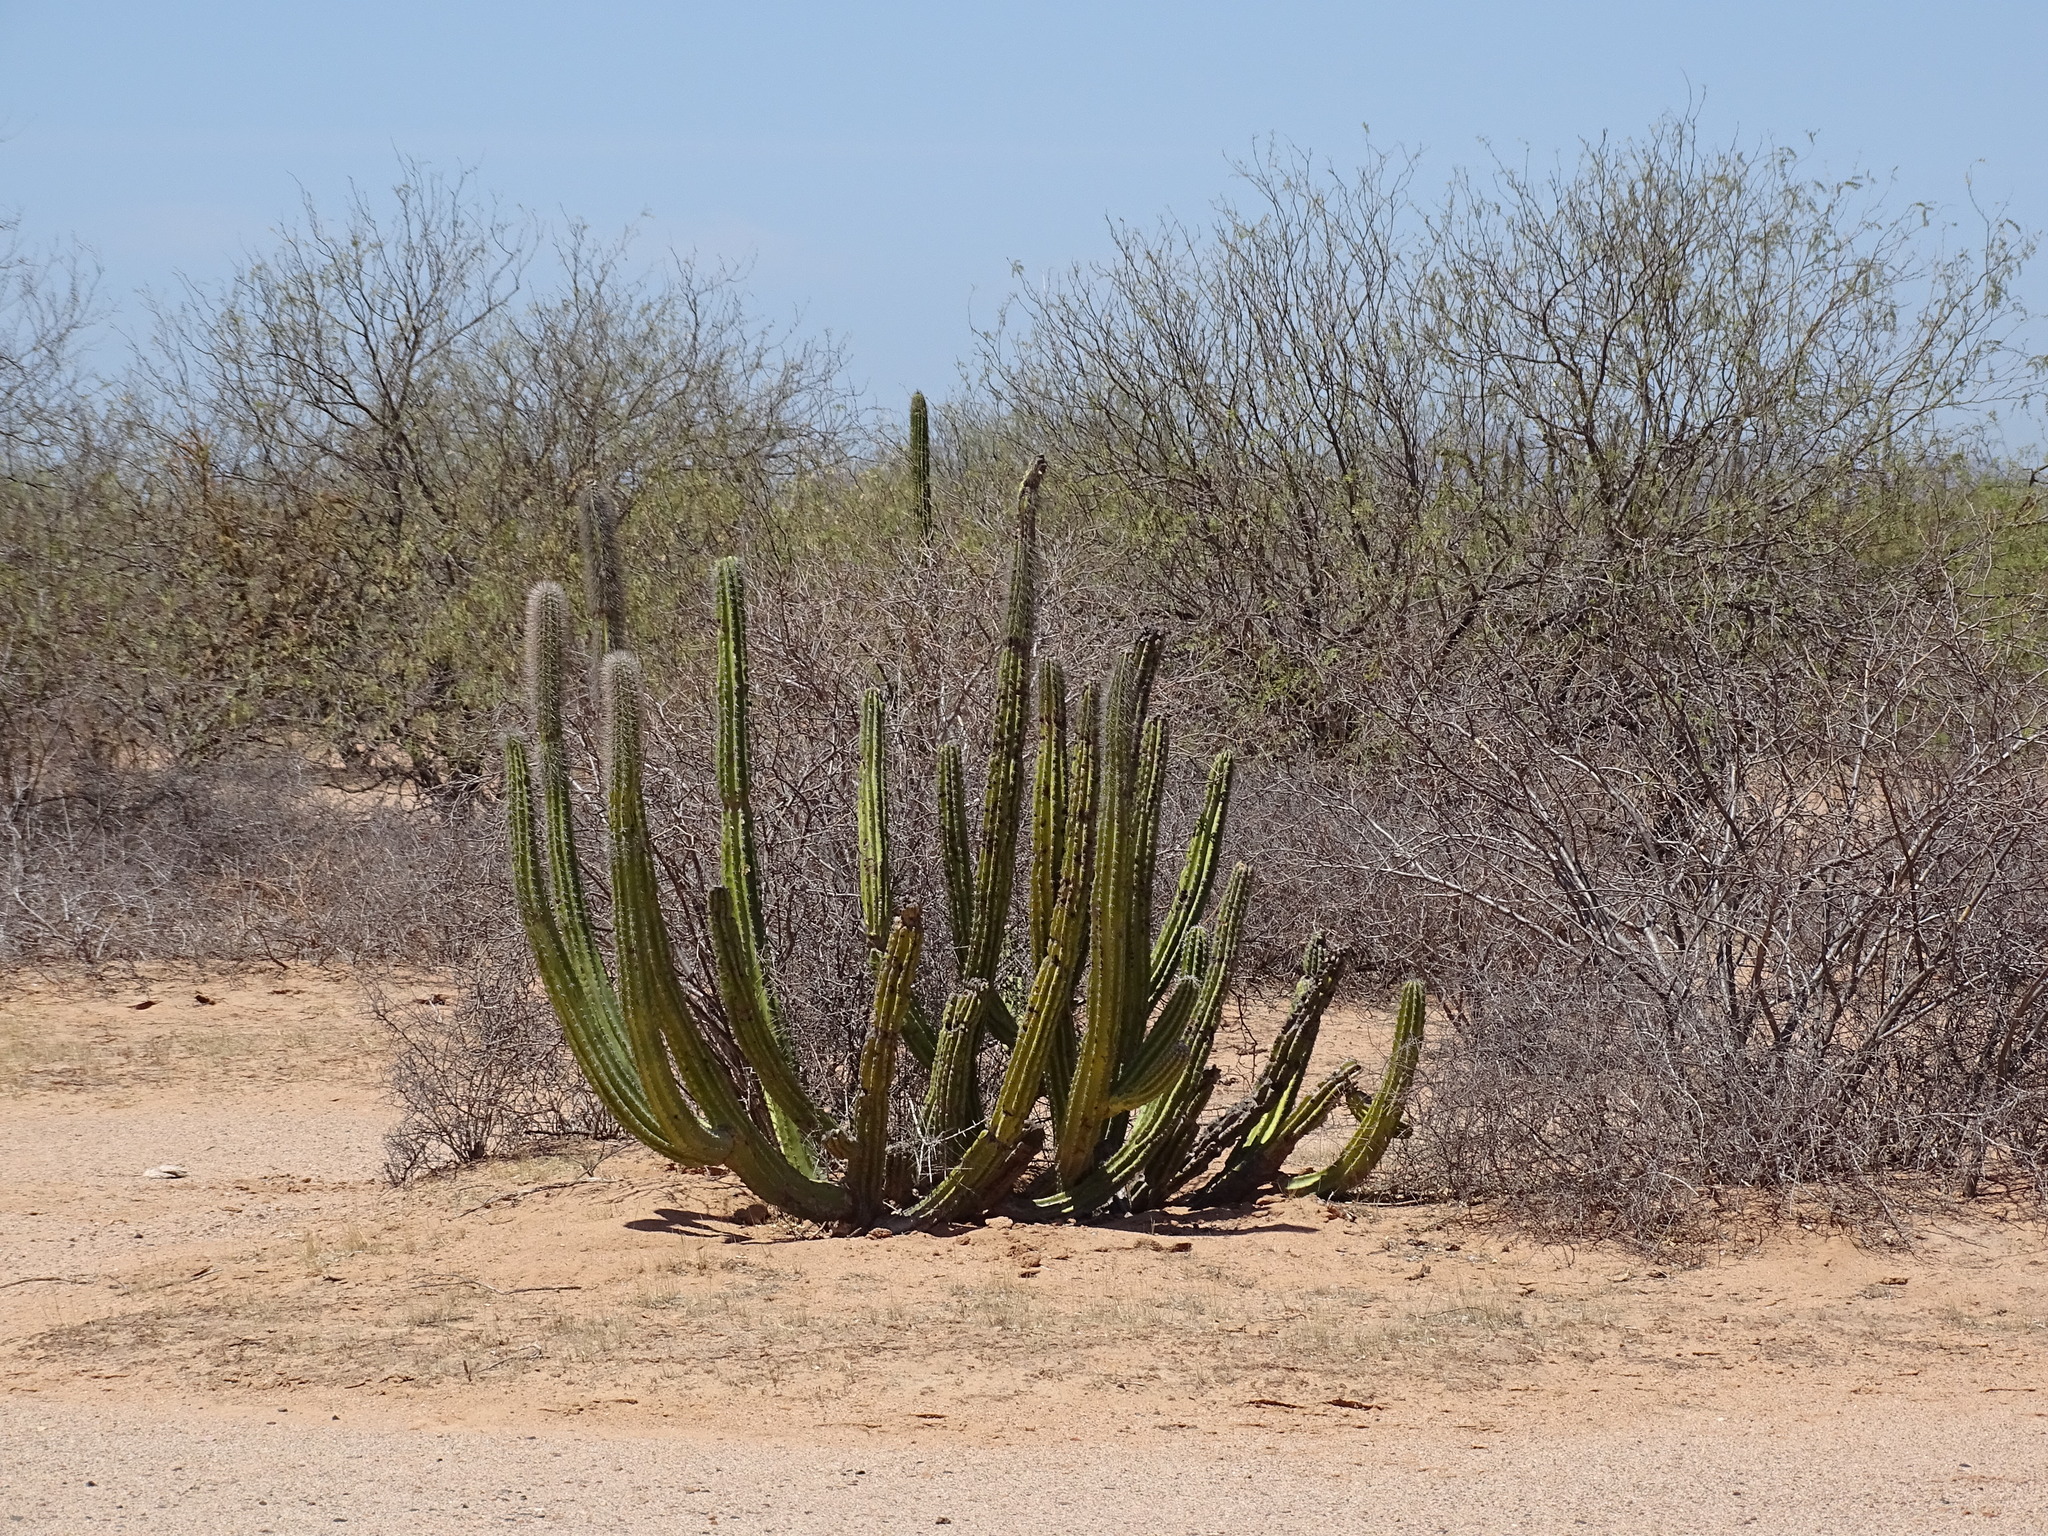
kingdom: Plantae
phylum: Tracheophyta
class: Magnoliopsida
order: Caryophyllales
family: Cactaceae
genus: Pachycereus
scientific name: Pachycereus schottii
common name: Senita cactus
